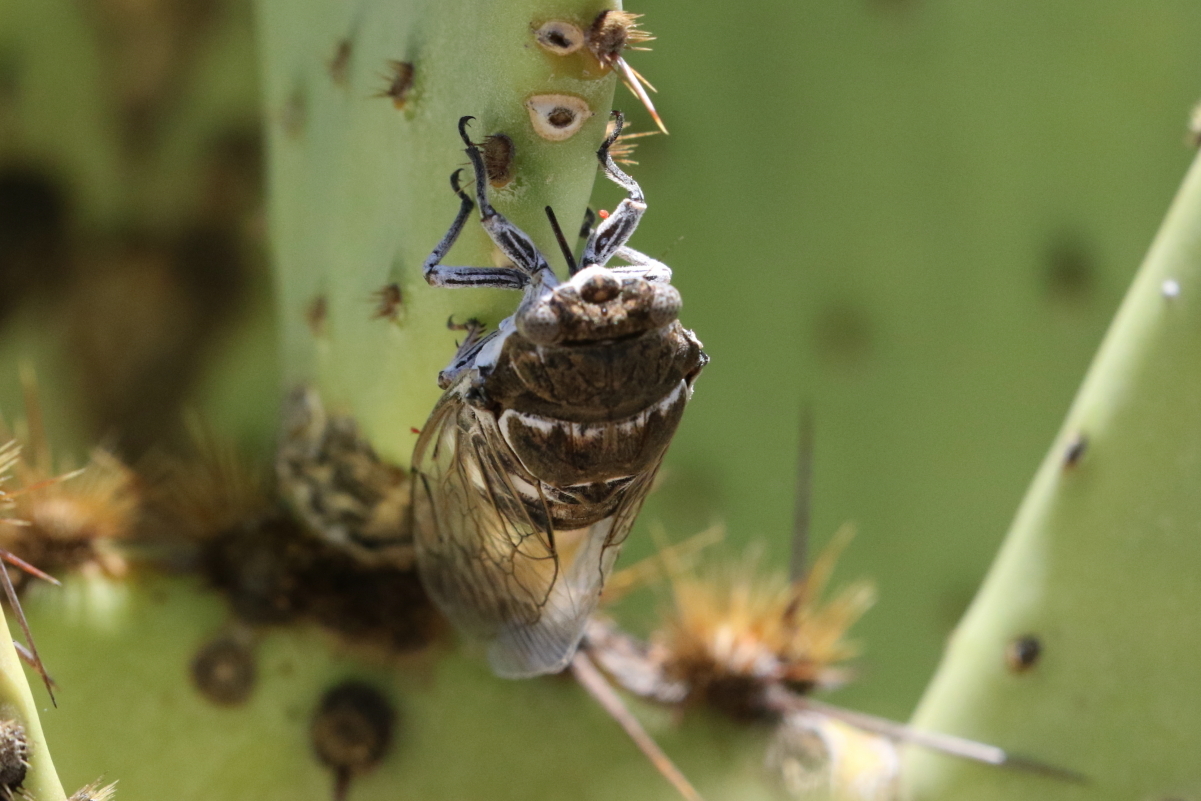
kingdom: Animalia
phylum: Arthropoda
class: Insecta
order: Hemiptera
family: Cicadidae
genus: Cacama
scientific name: Cacama valvata
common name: Cactus dodger
